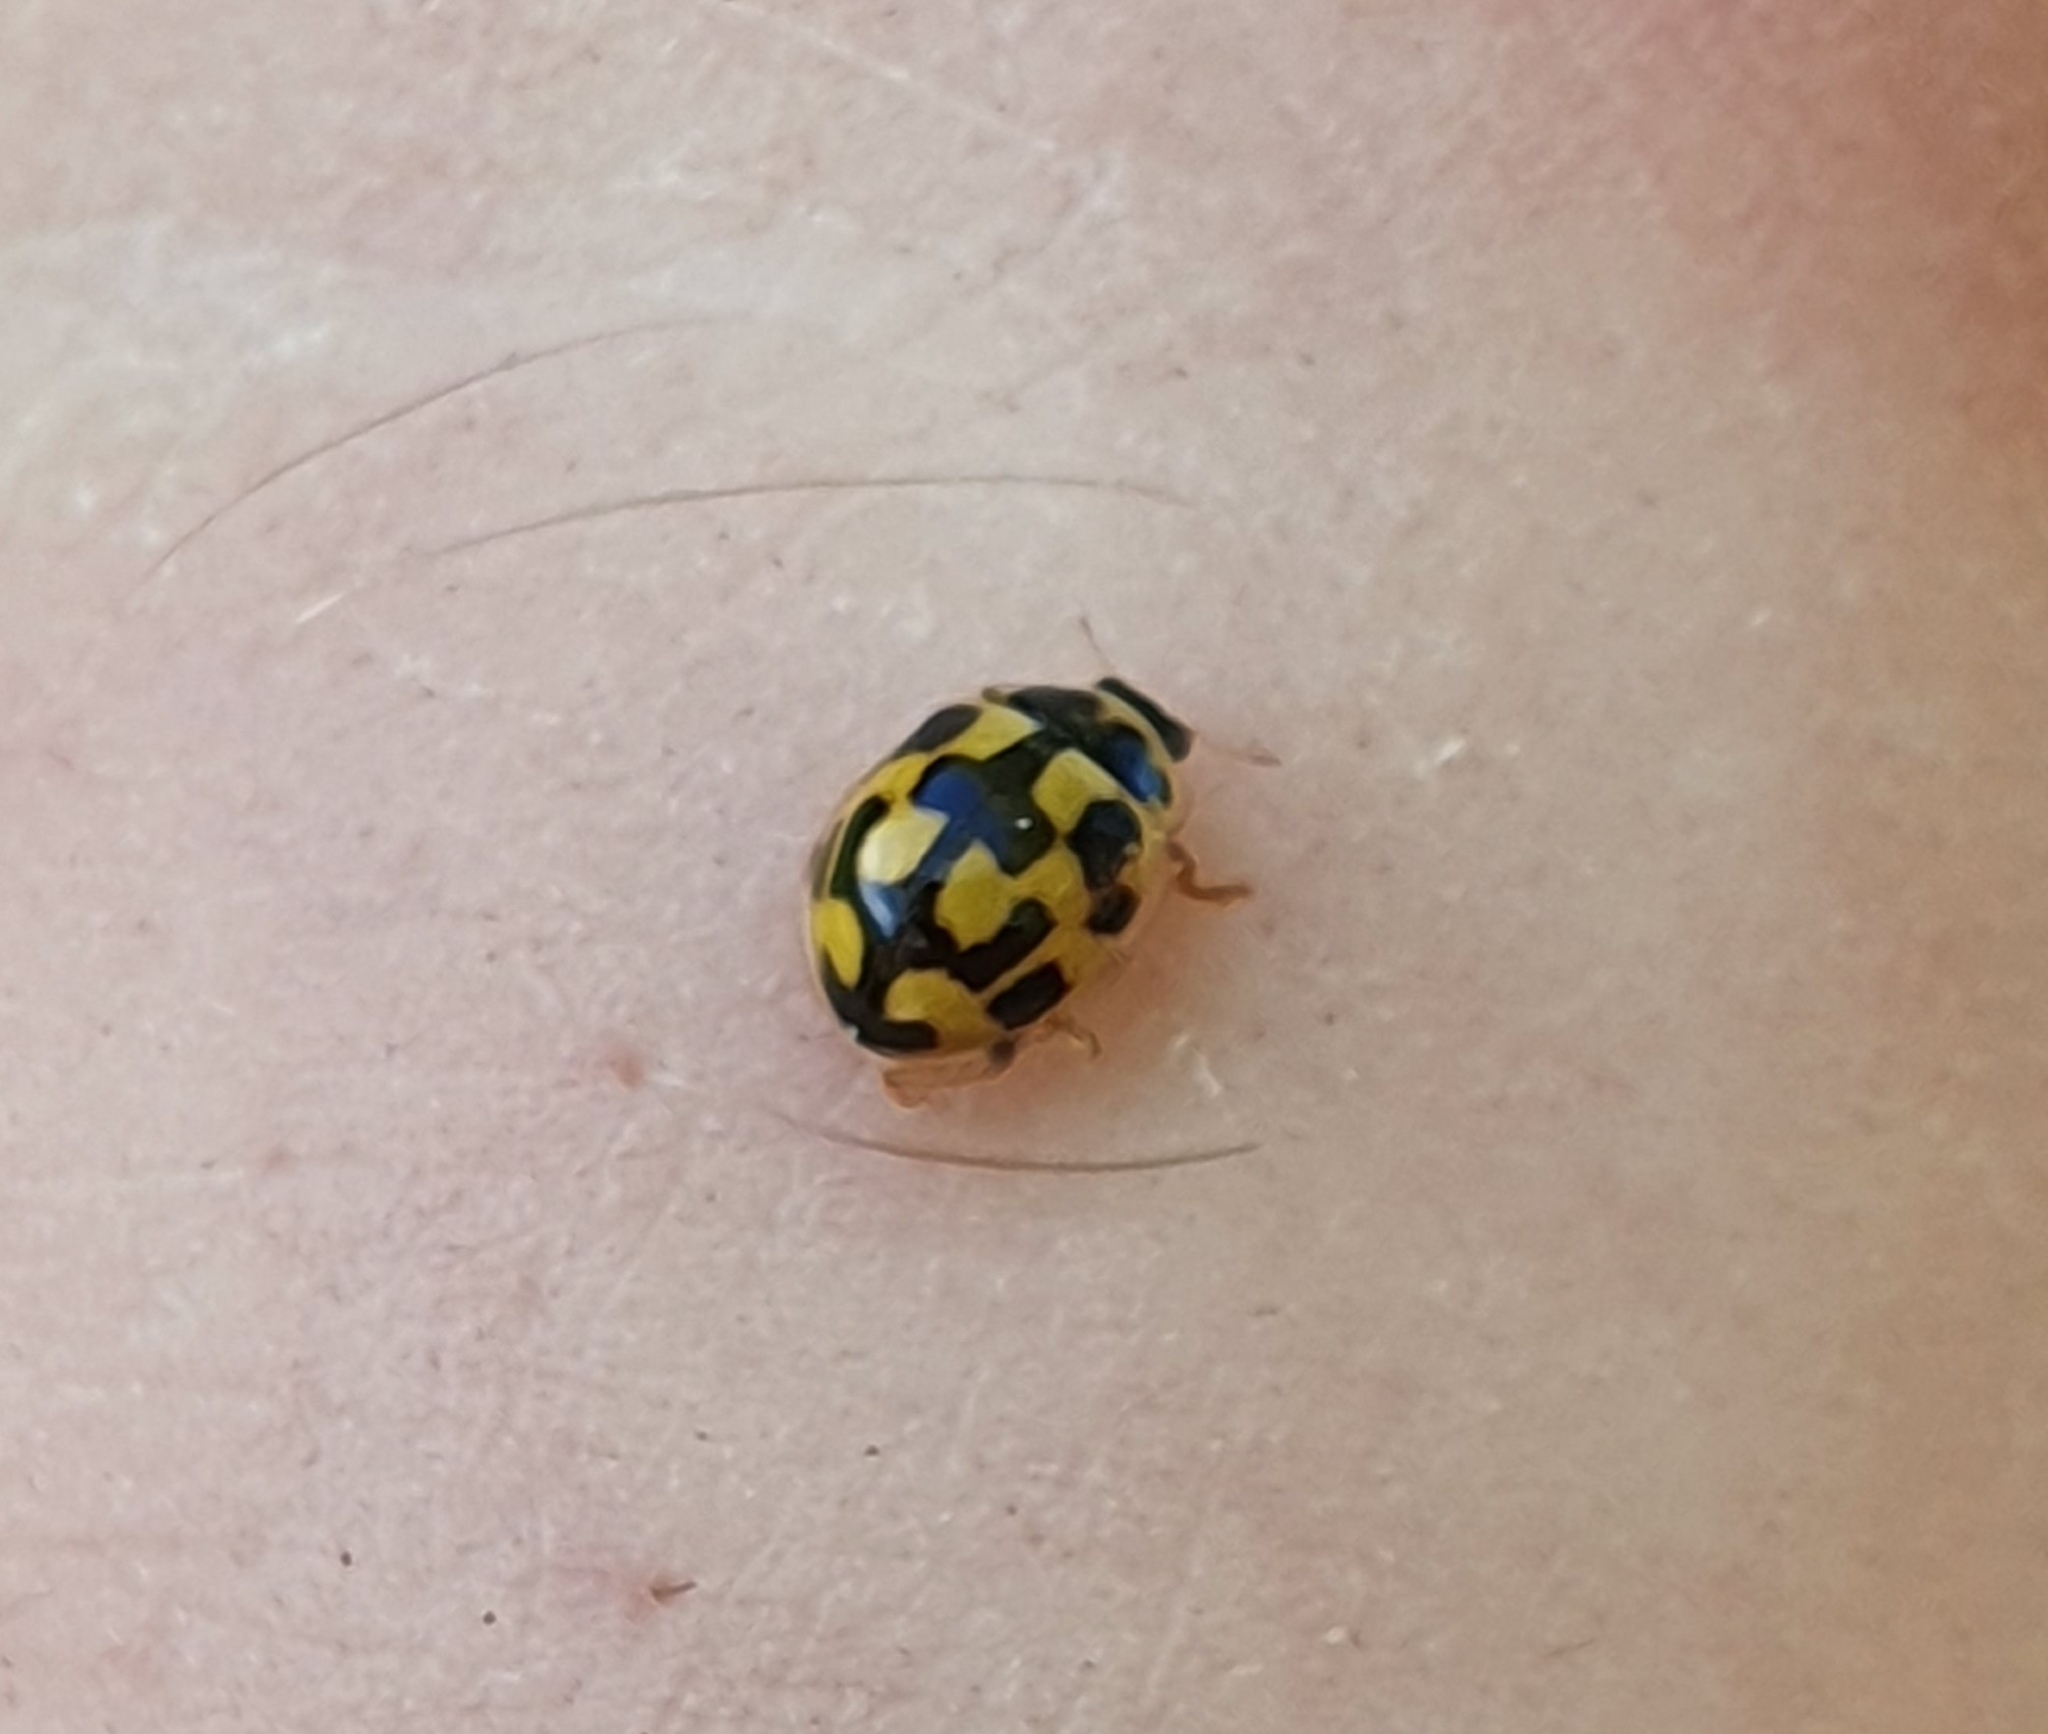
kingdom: Animalia
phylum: Arthropoda
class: Insecta
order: Coleoptera
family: Coccinellidae
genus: Propylaea
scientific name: Propylaea quatuordecimpunctata
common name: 14-spotted ladybird beetle
